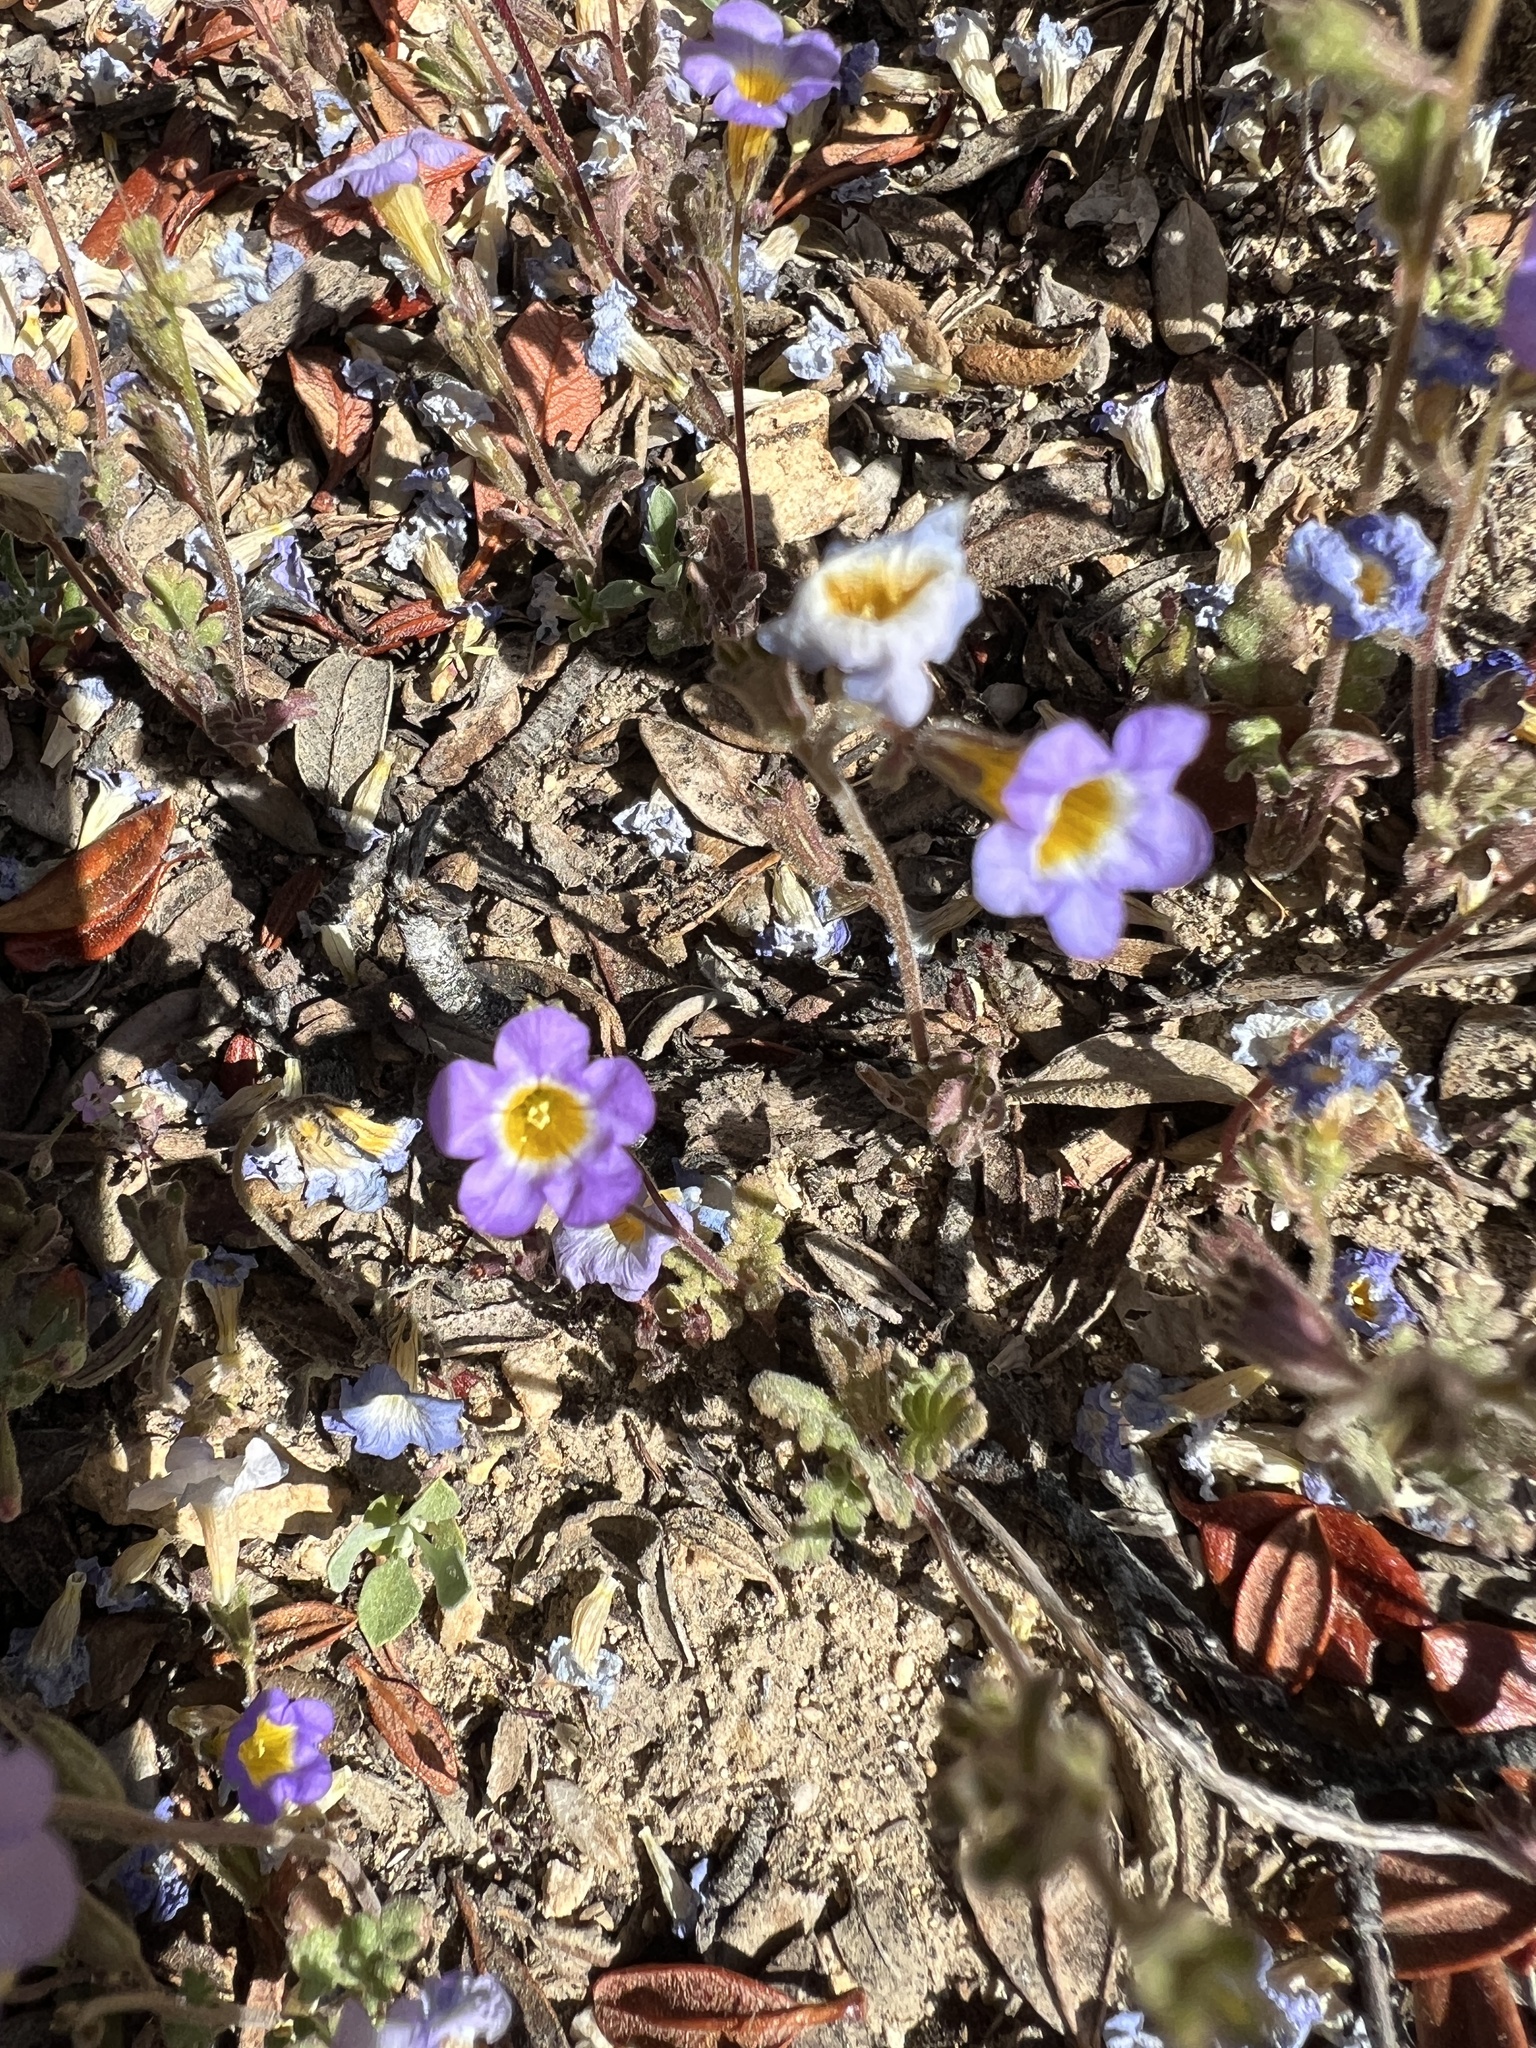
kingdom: Plantae
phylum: Tracheophyta
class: Magnoliopsida
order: Boraginales
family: Hydrophyllaceae
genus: Phacelia
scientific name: Phacelia fremontii
